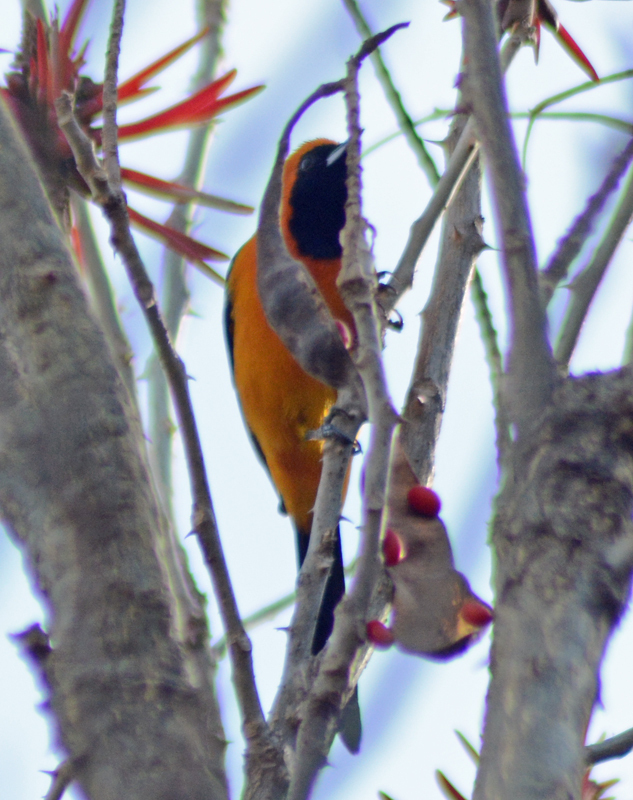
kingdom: Animalia
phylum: Chordata
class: Aves
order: Passeriformes
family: Icteridae
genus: Icterus
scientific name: Icterus cucullatus
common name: Hooded oriole
